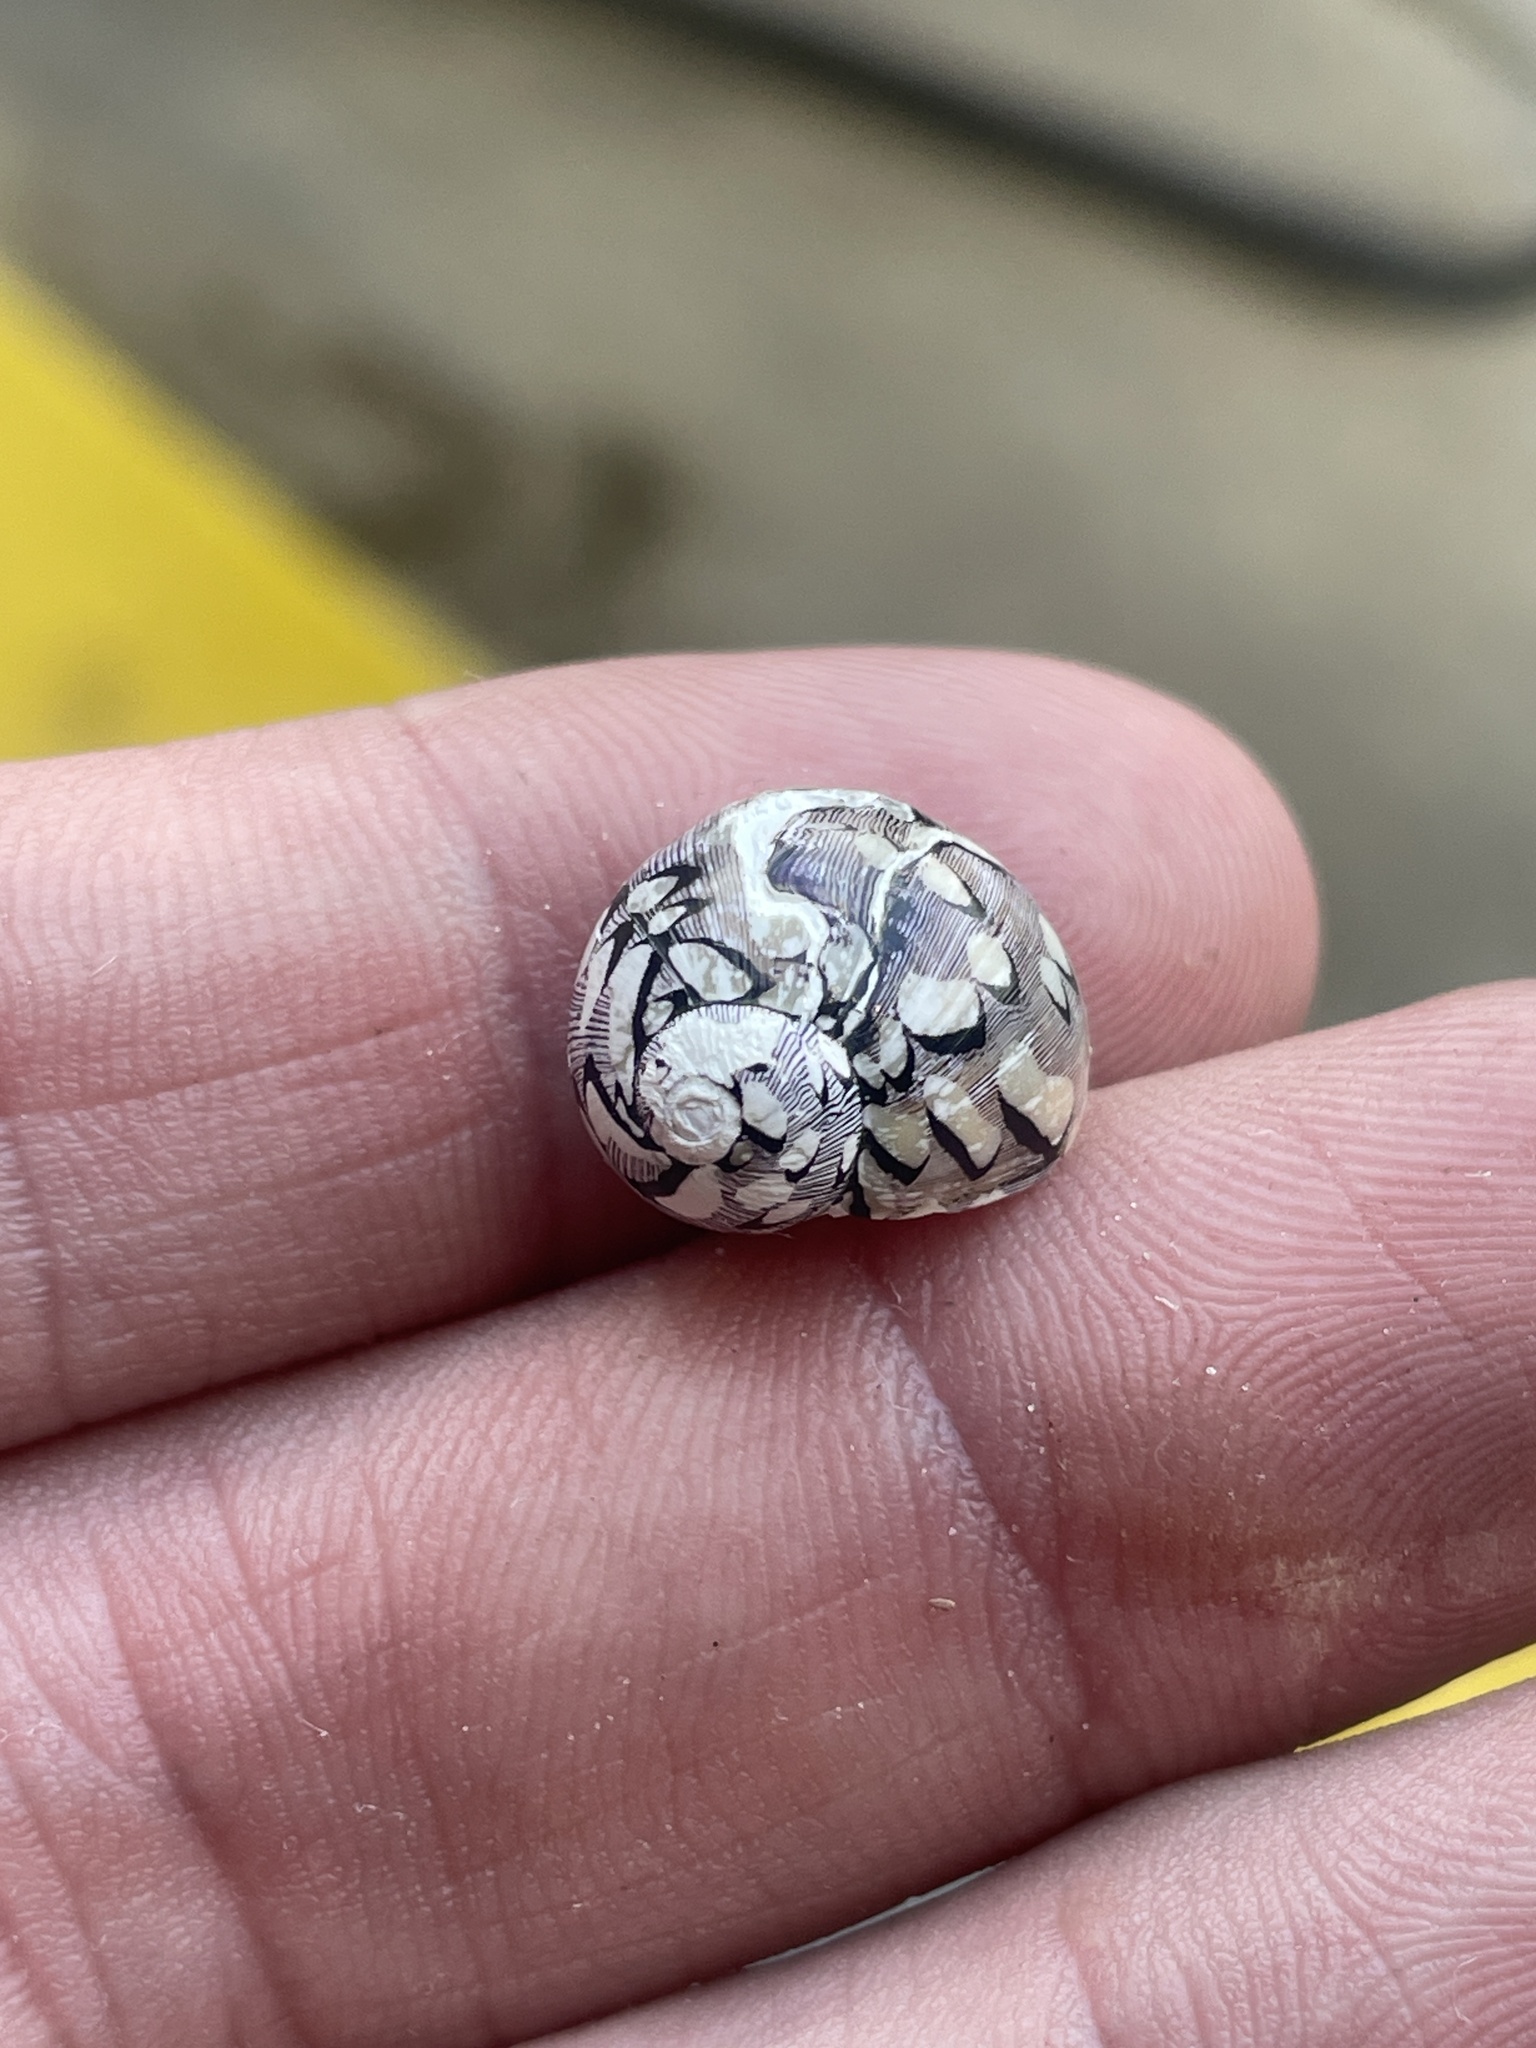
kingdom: Animalia
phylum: Mollusca
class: Gastropoda
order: Cycloneritida
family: Neritidae
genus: Vitta
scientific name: Vitta virginea
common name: Virgin nerite
